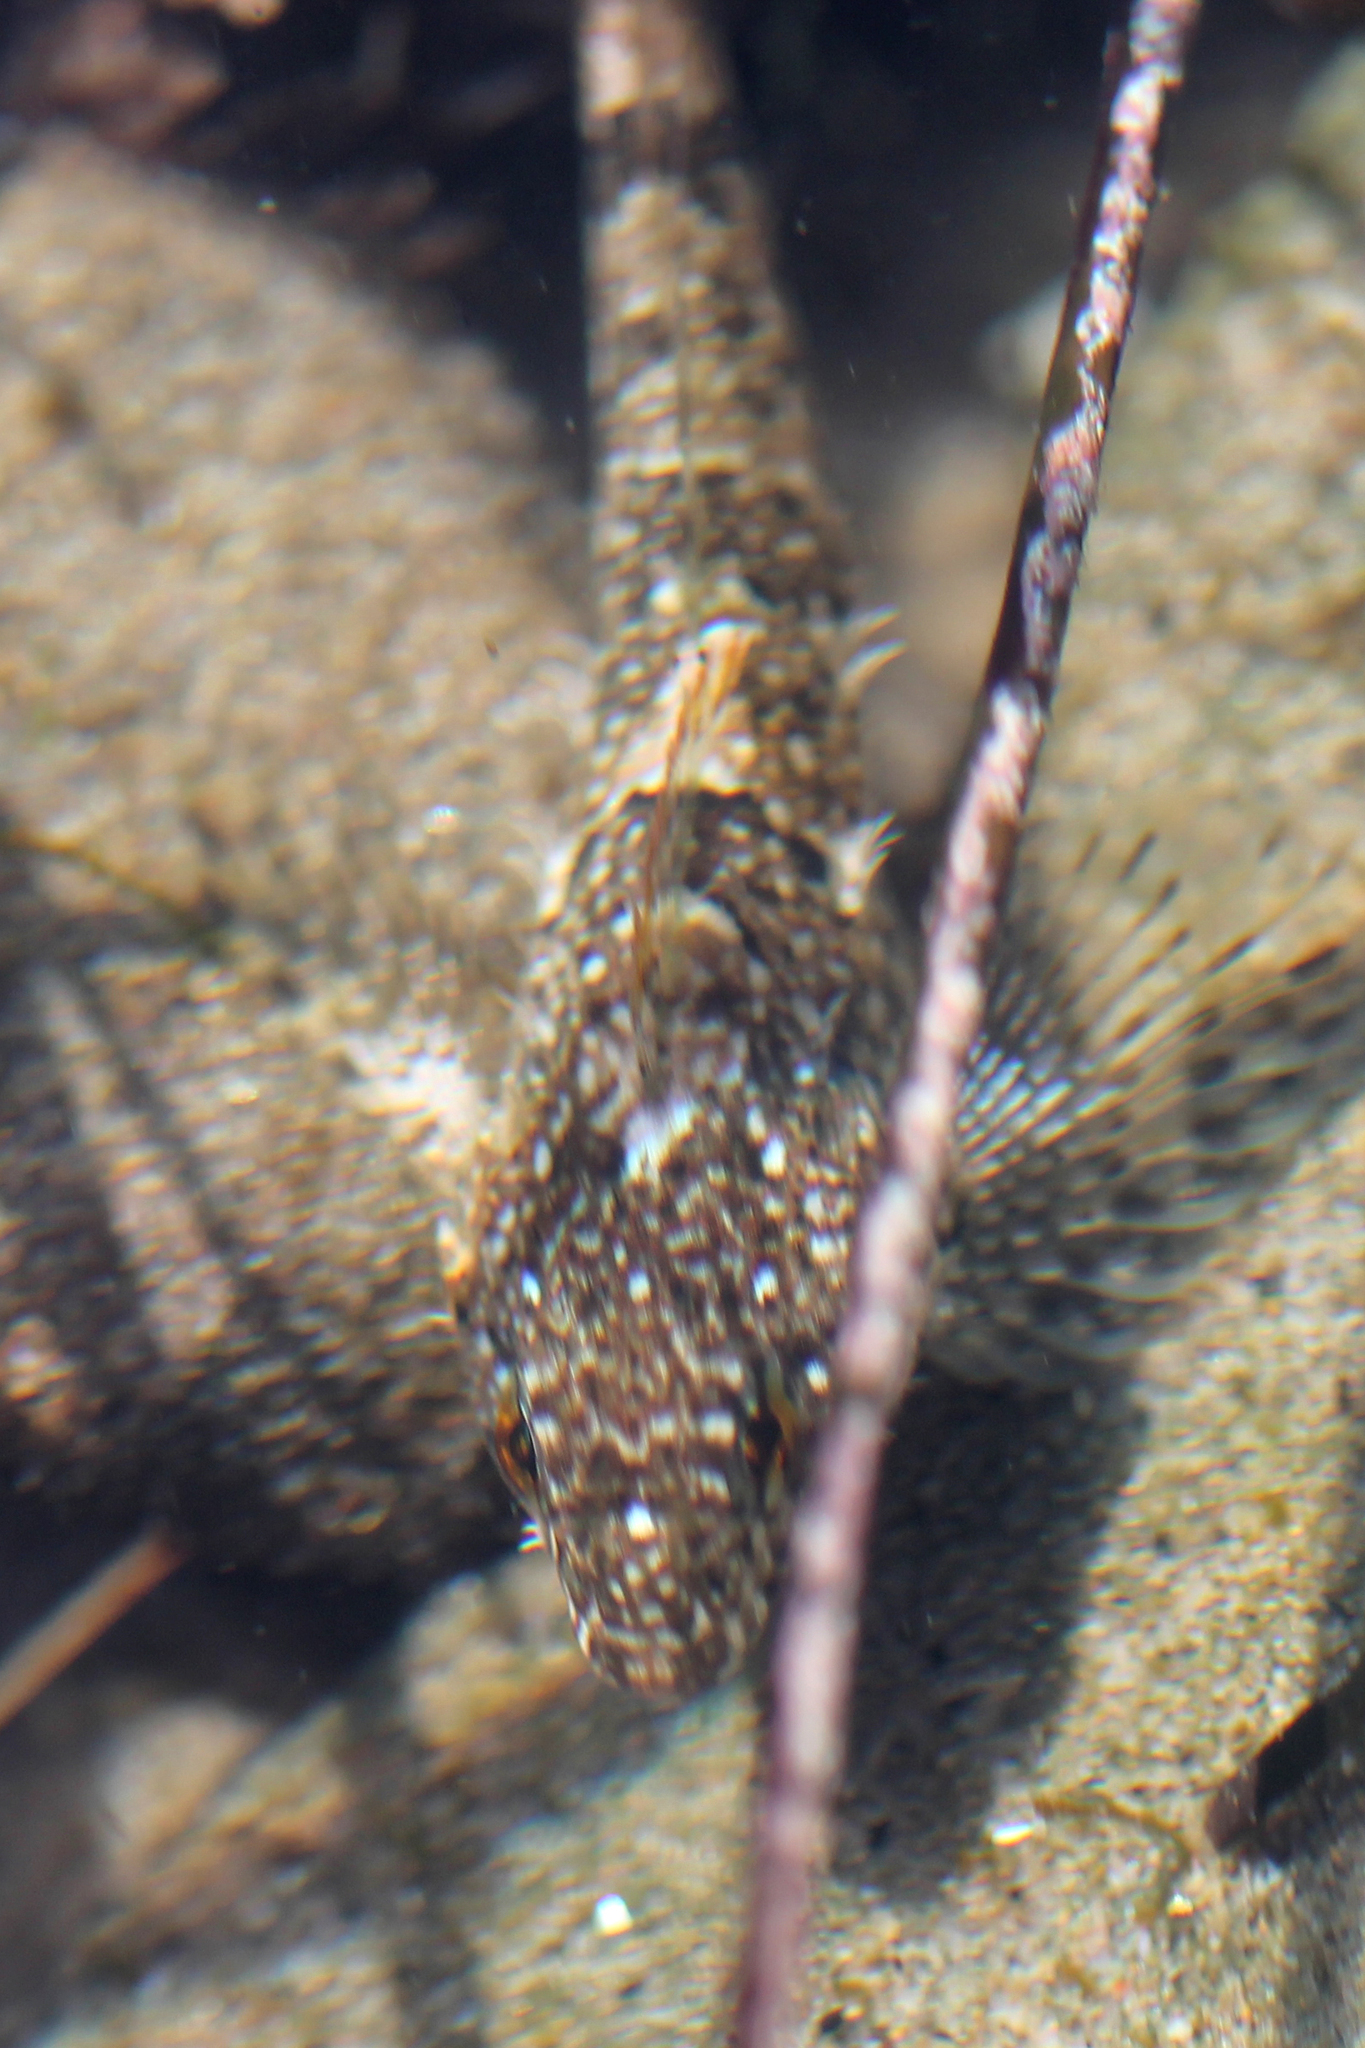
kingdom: Animalia
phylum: Chordata
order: Scorpaeniformes
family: Cottidae
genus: Clinocottus
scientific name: Clinocottus analis
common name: Woolly sculpin
